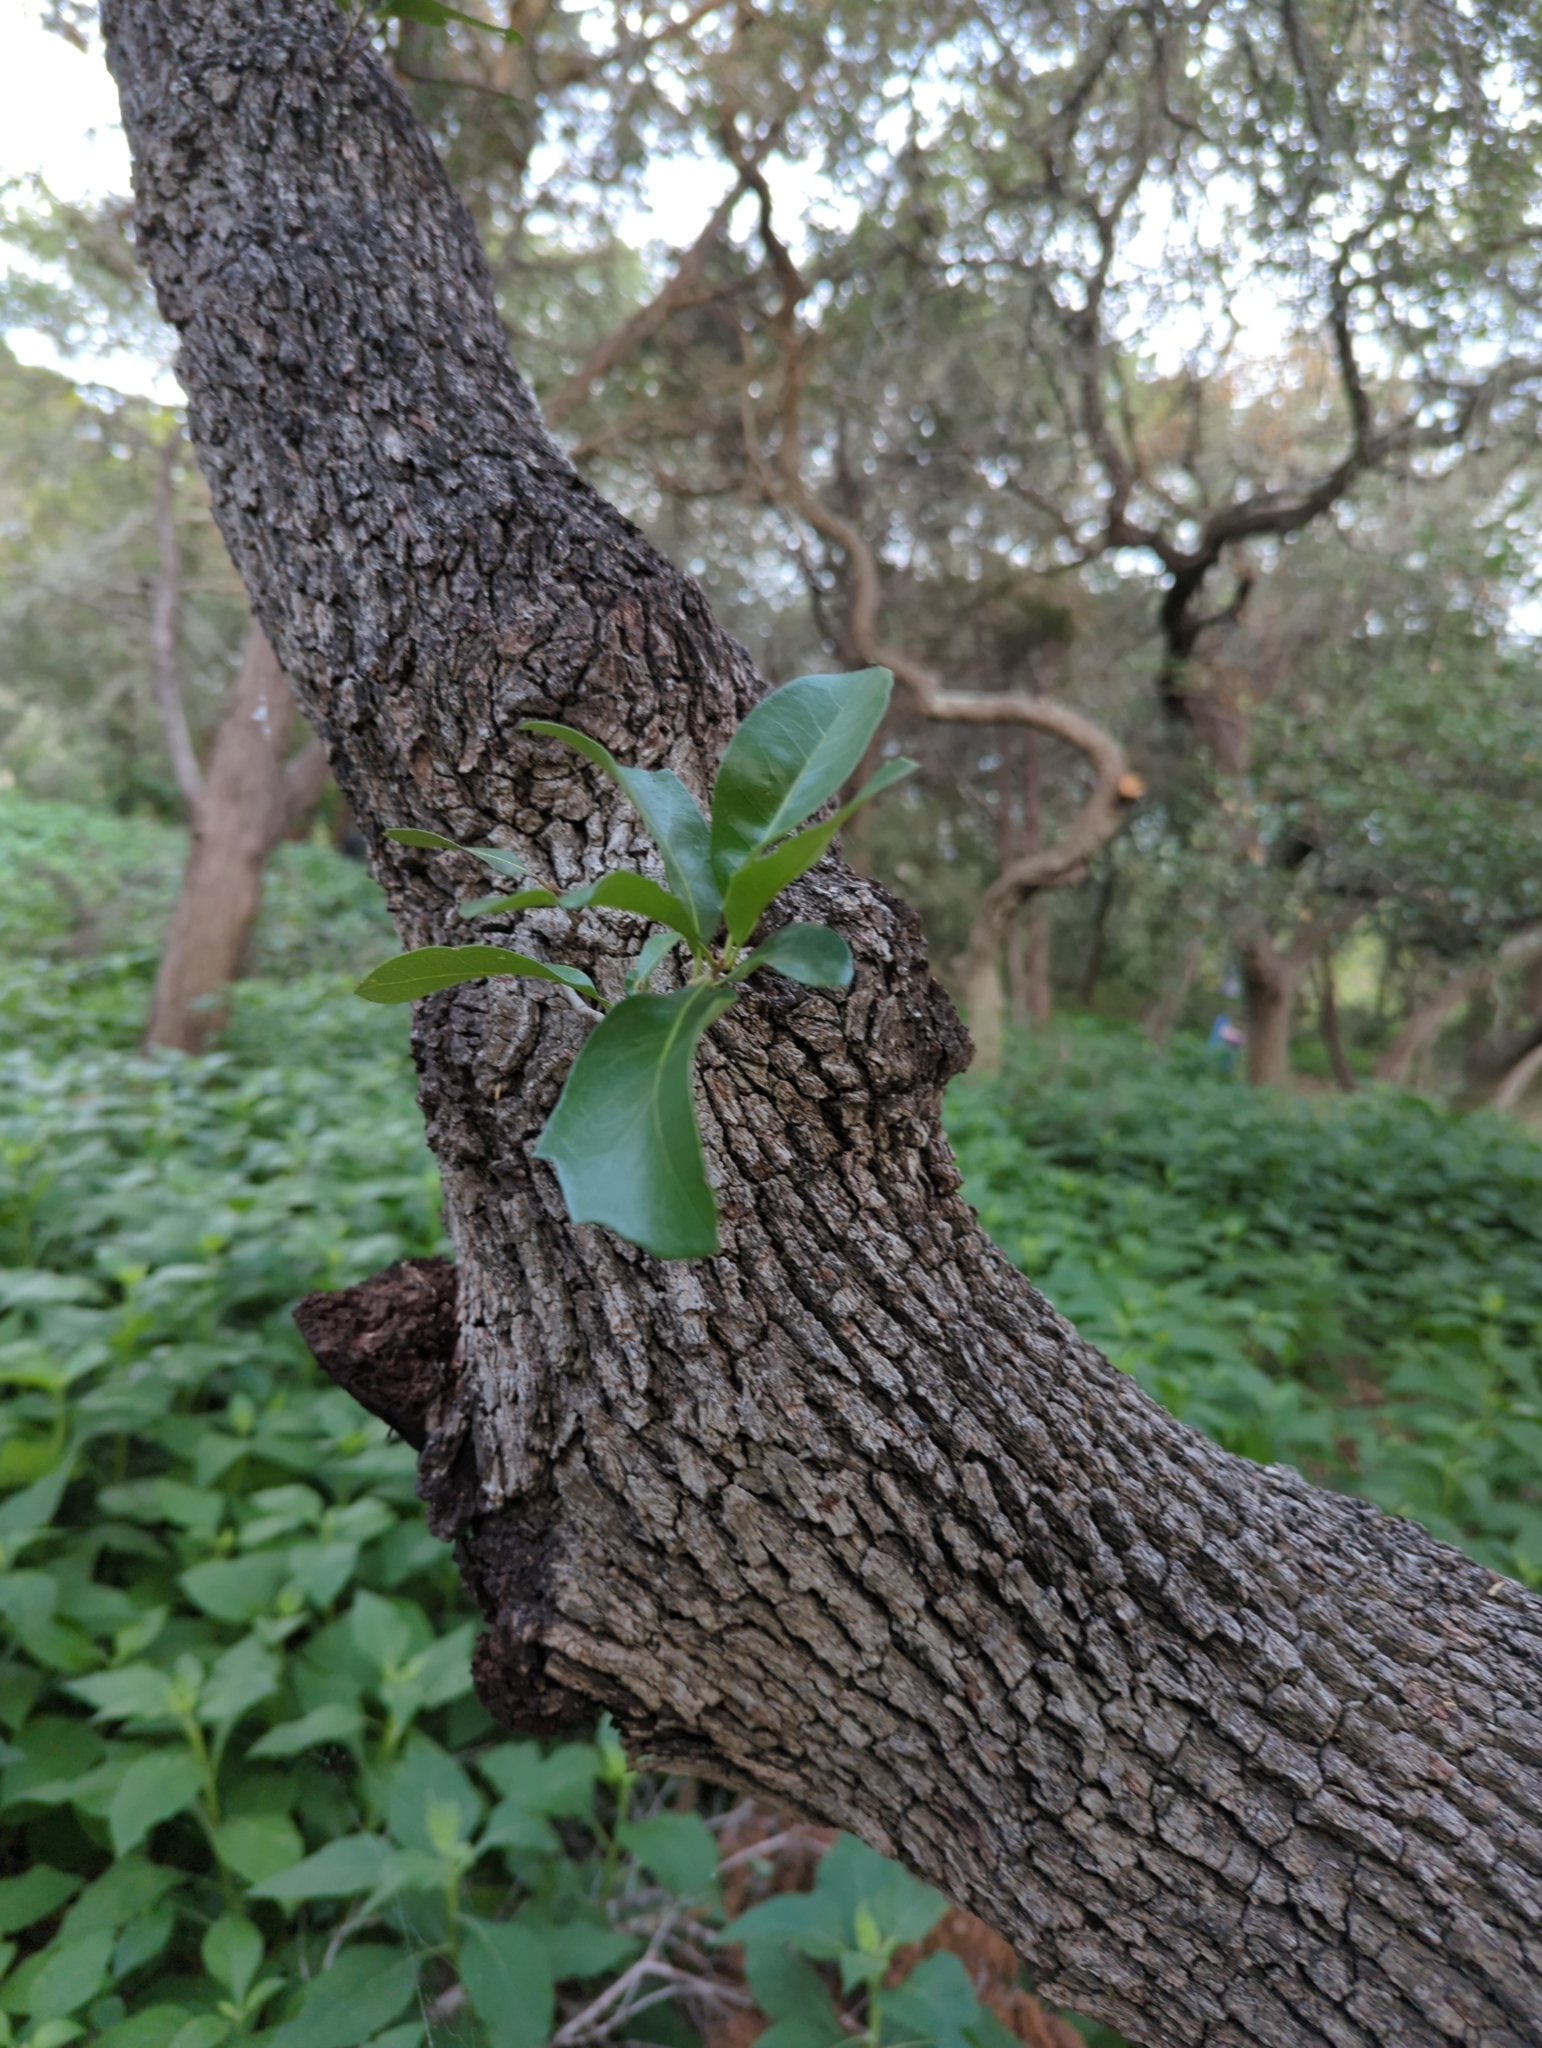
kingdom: Plantae
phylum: Tracheophyta
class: Magnoliopsida
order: Fagales
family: Fagaceae
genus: Quercus
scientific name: Quercus fusiformis
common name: Texas live oak
